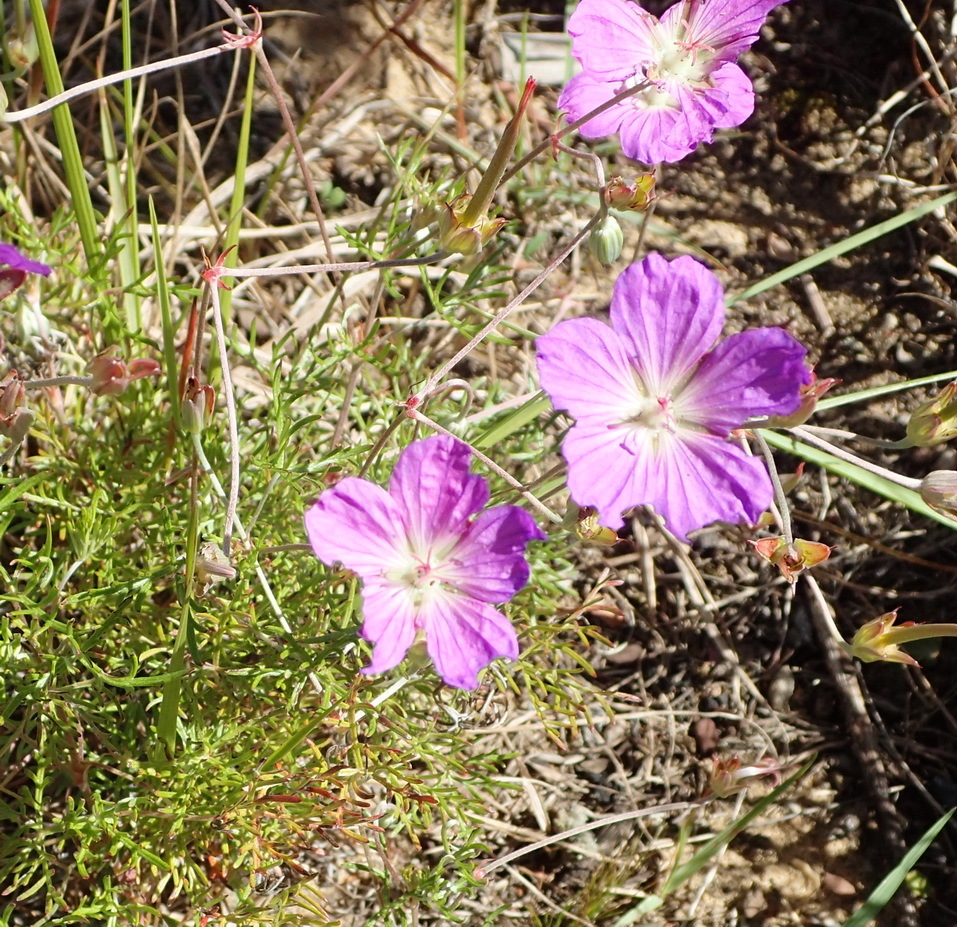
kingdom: Plantae
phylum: Tracheophyta
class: Magnoliopsida
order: Geraniales
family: Geraniaceae
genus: Geranium
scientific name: Geranium incanum
